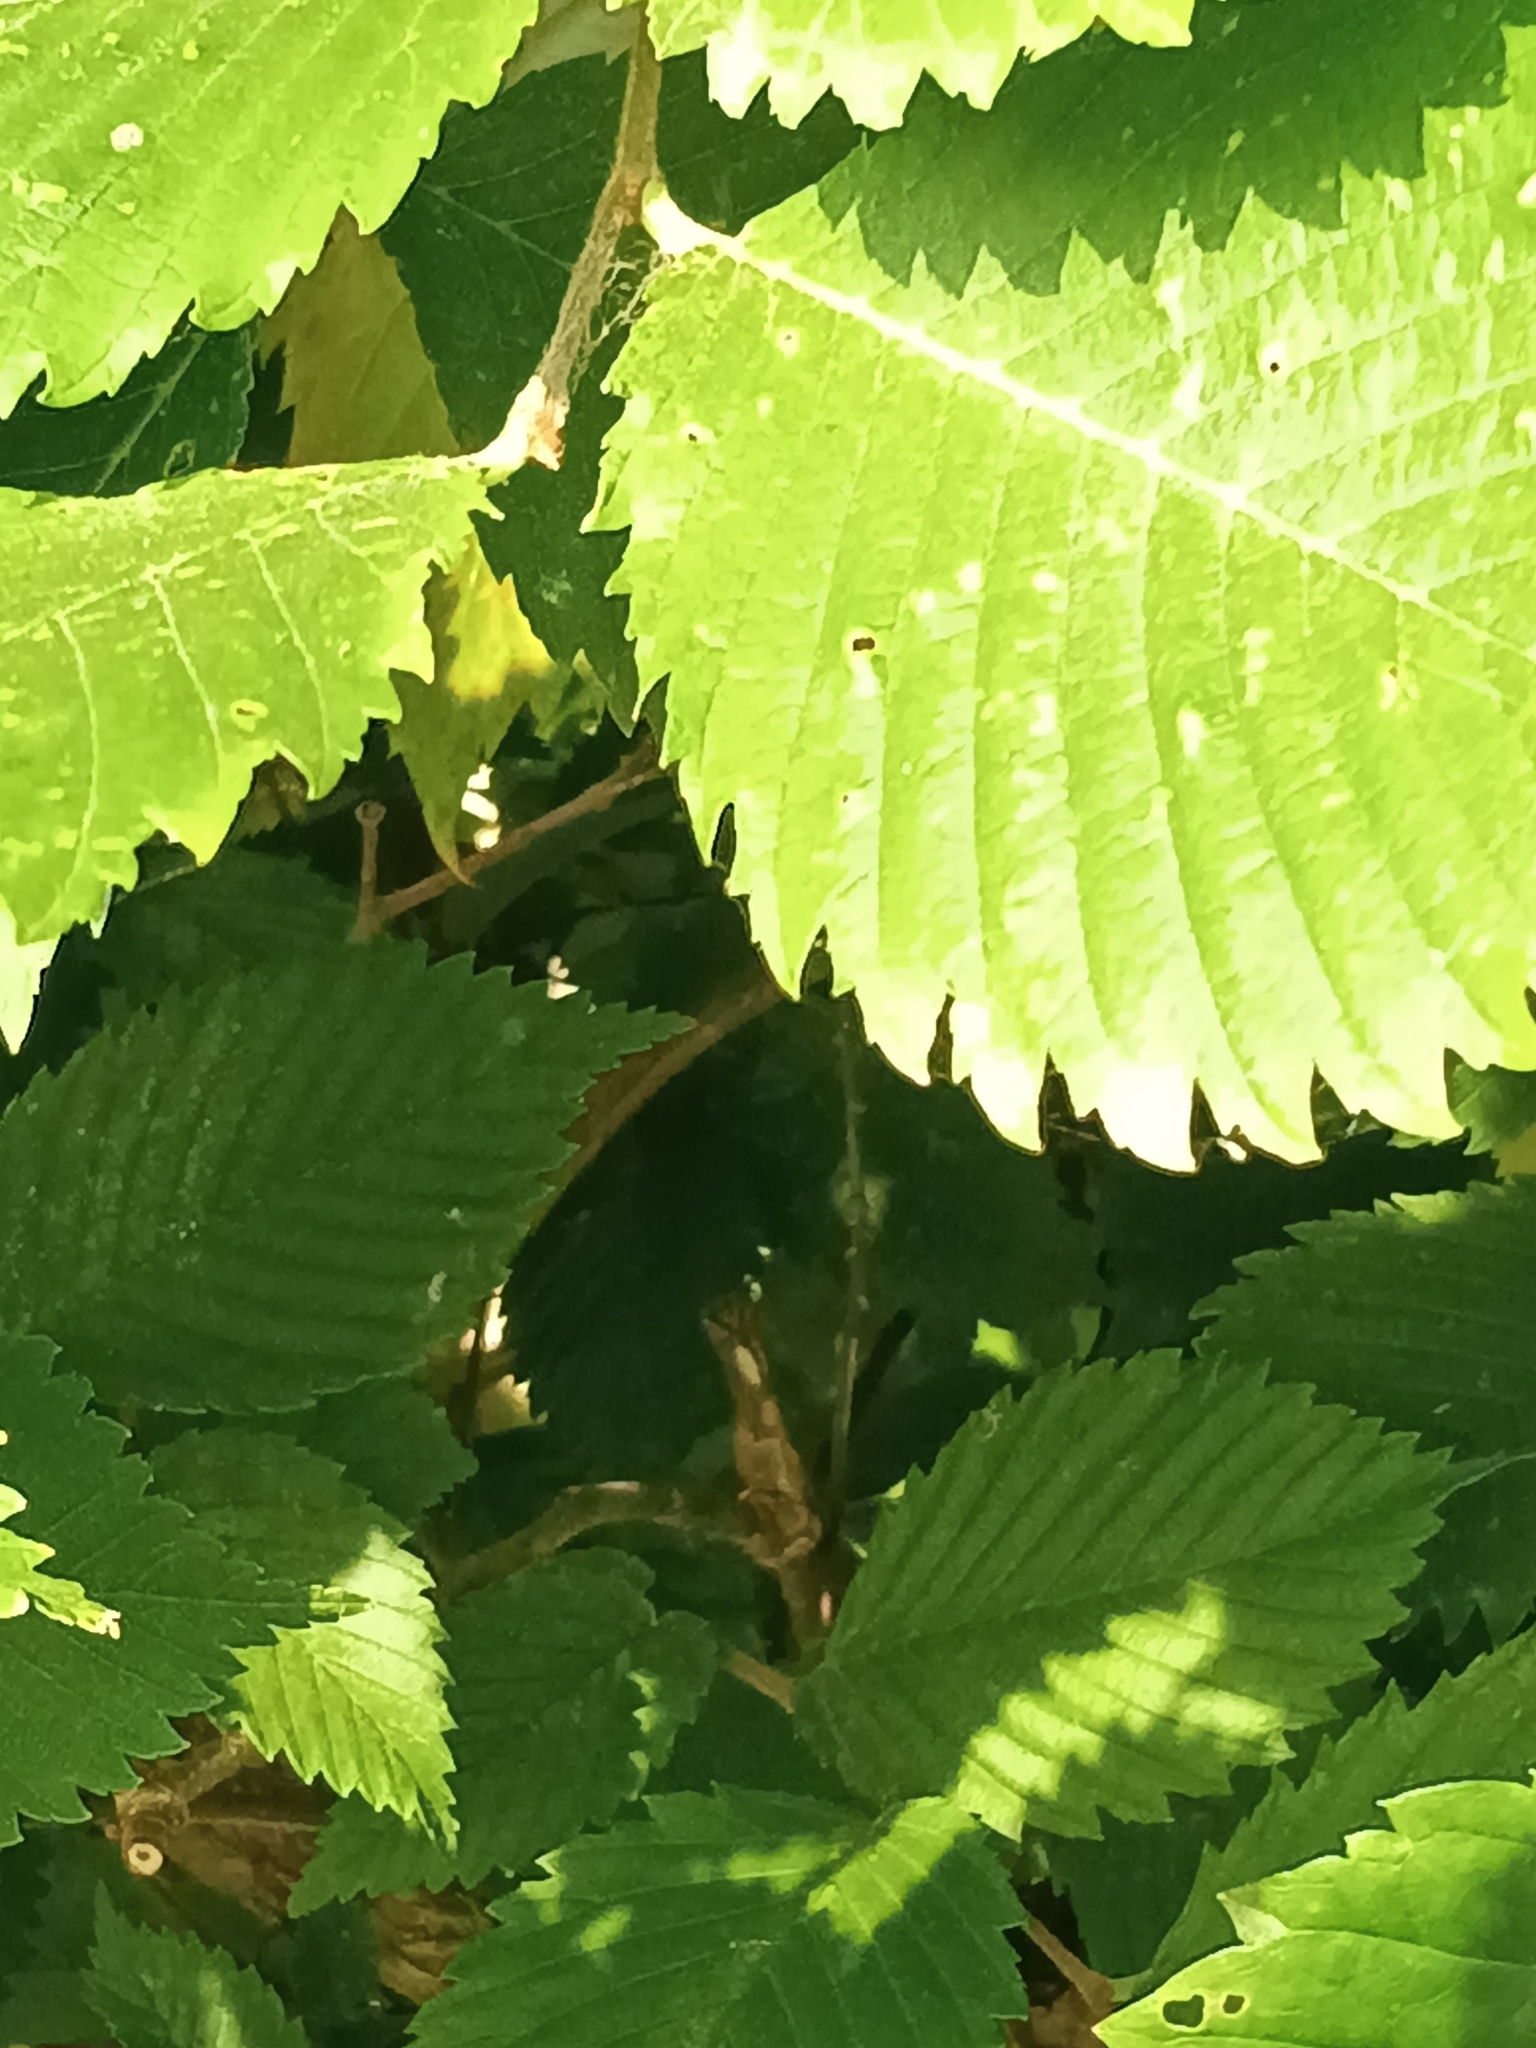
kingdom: Plantae
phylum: Tracheophyta
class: Magnoliopsida
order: Rosales
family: Ulmaceae
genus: Ulmus
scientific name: Ulmus americana
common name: American elm
